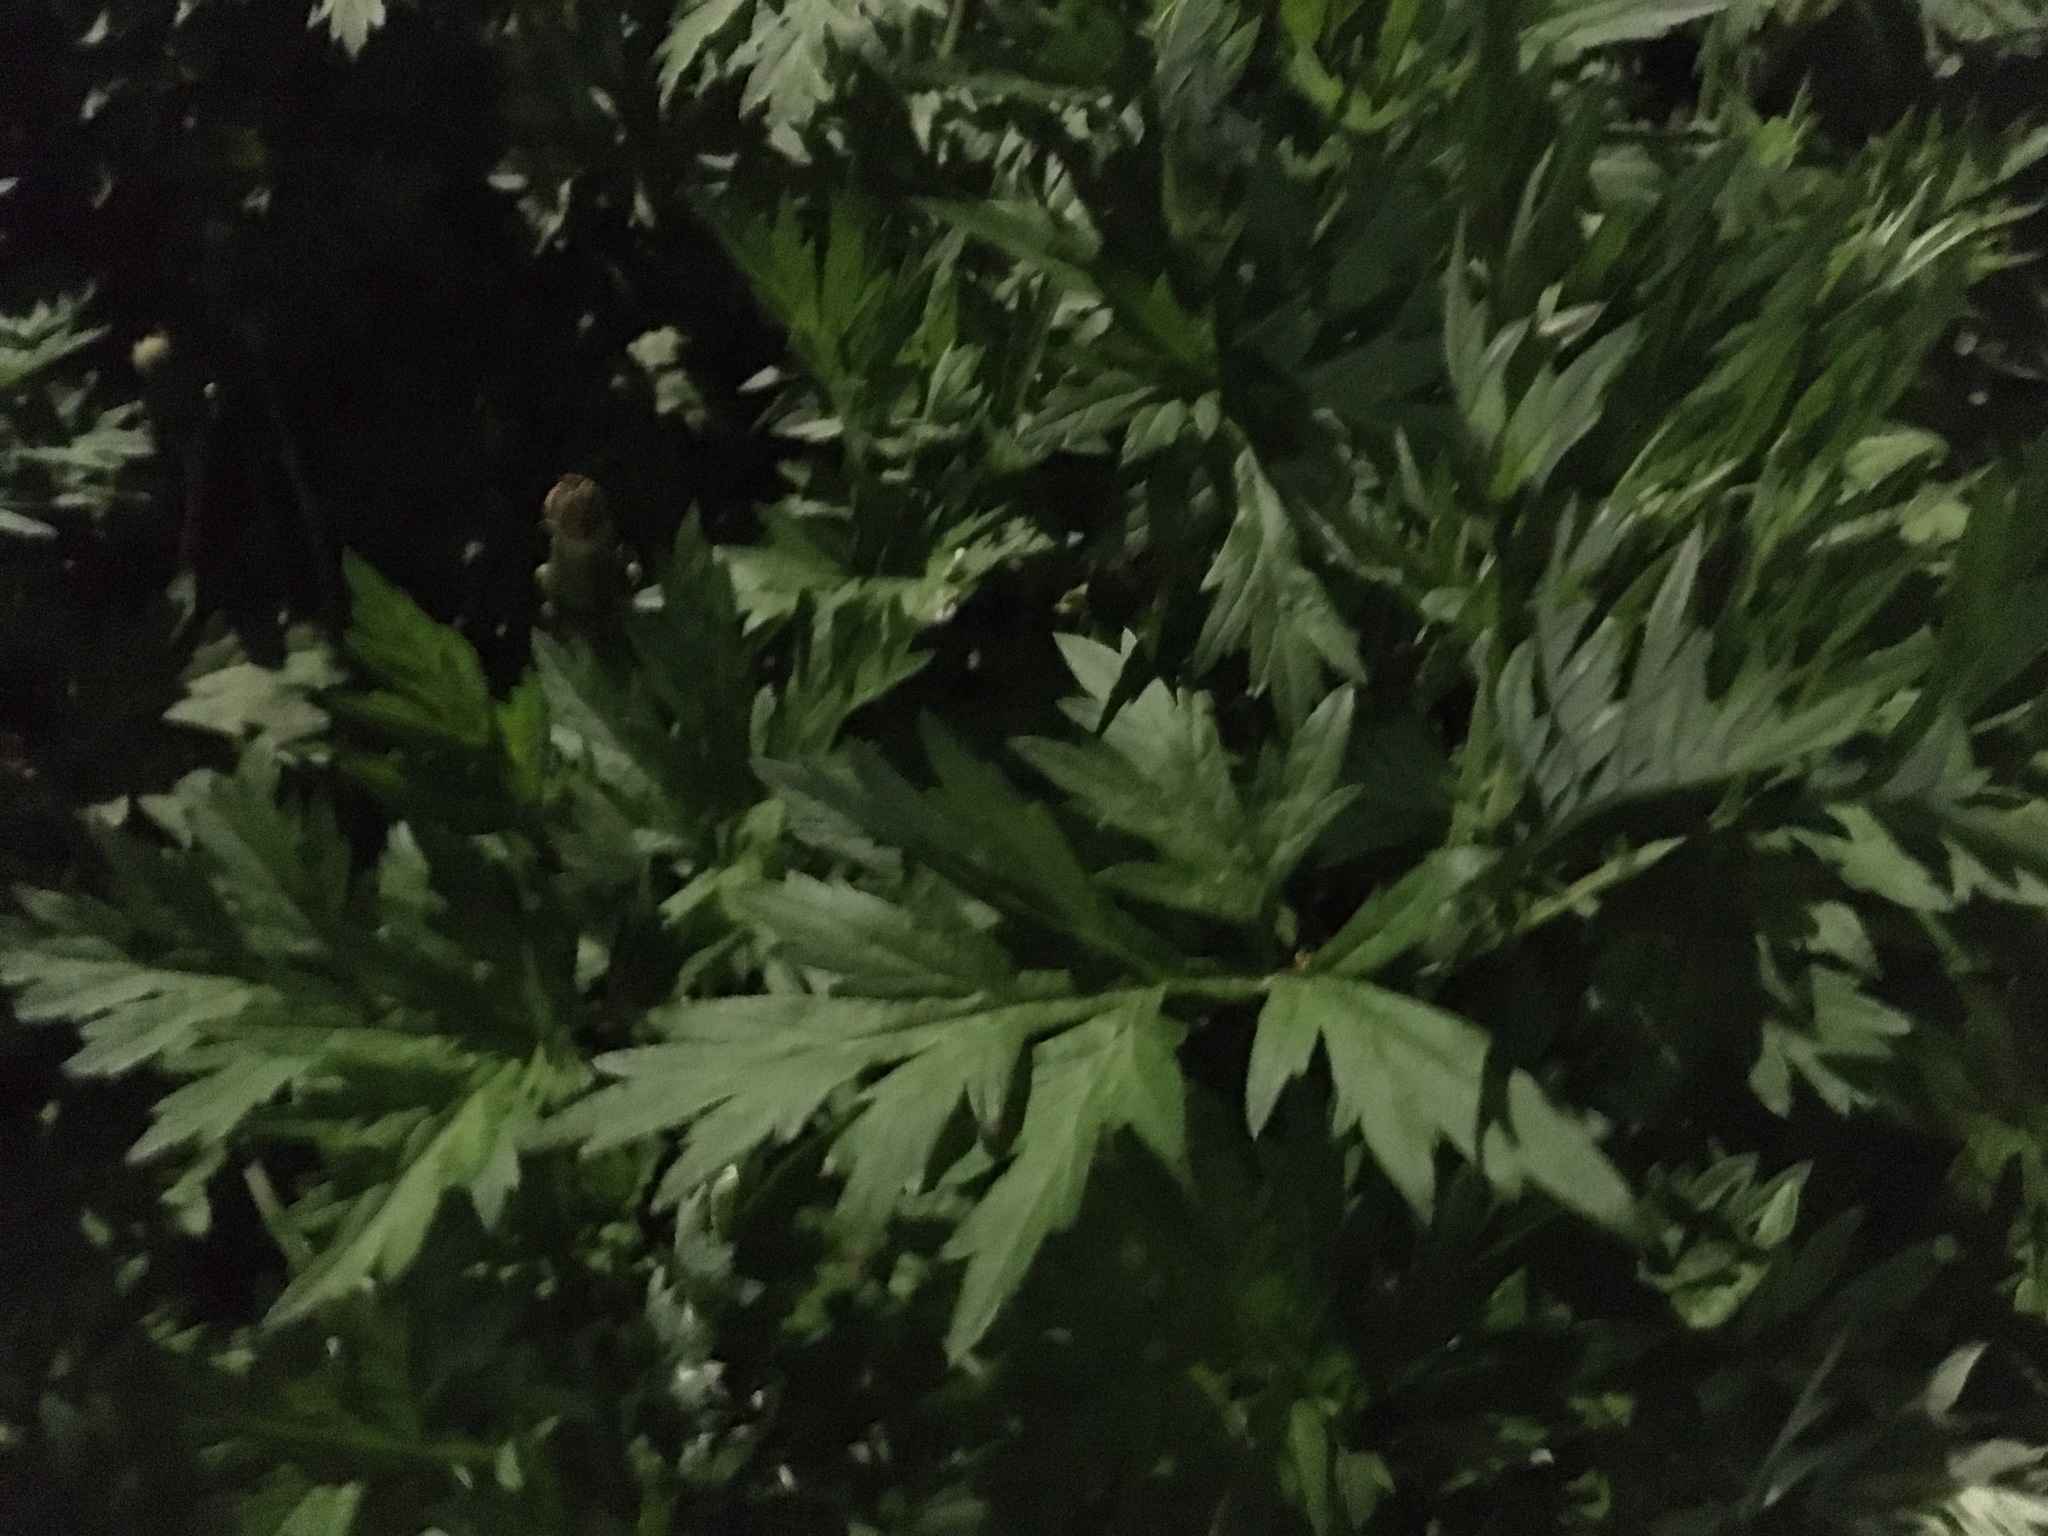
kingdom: Plantae
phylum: Tracheophyta
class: Magnoliopsida
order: Asterales
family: Asteraceae
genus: Artemisia
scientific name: Artemisia vulgaris
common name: Mugwort
